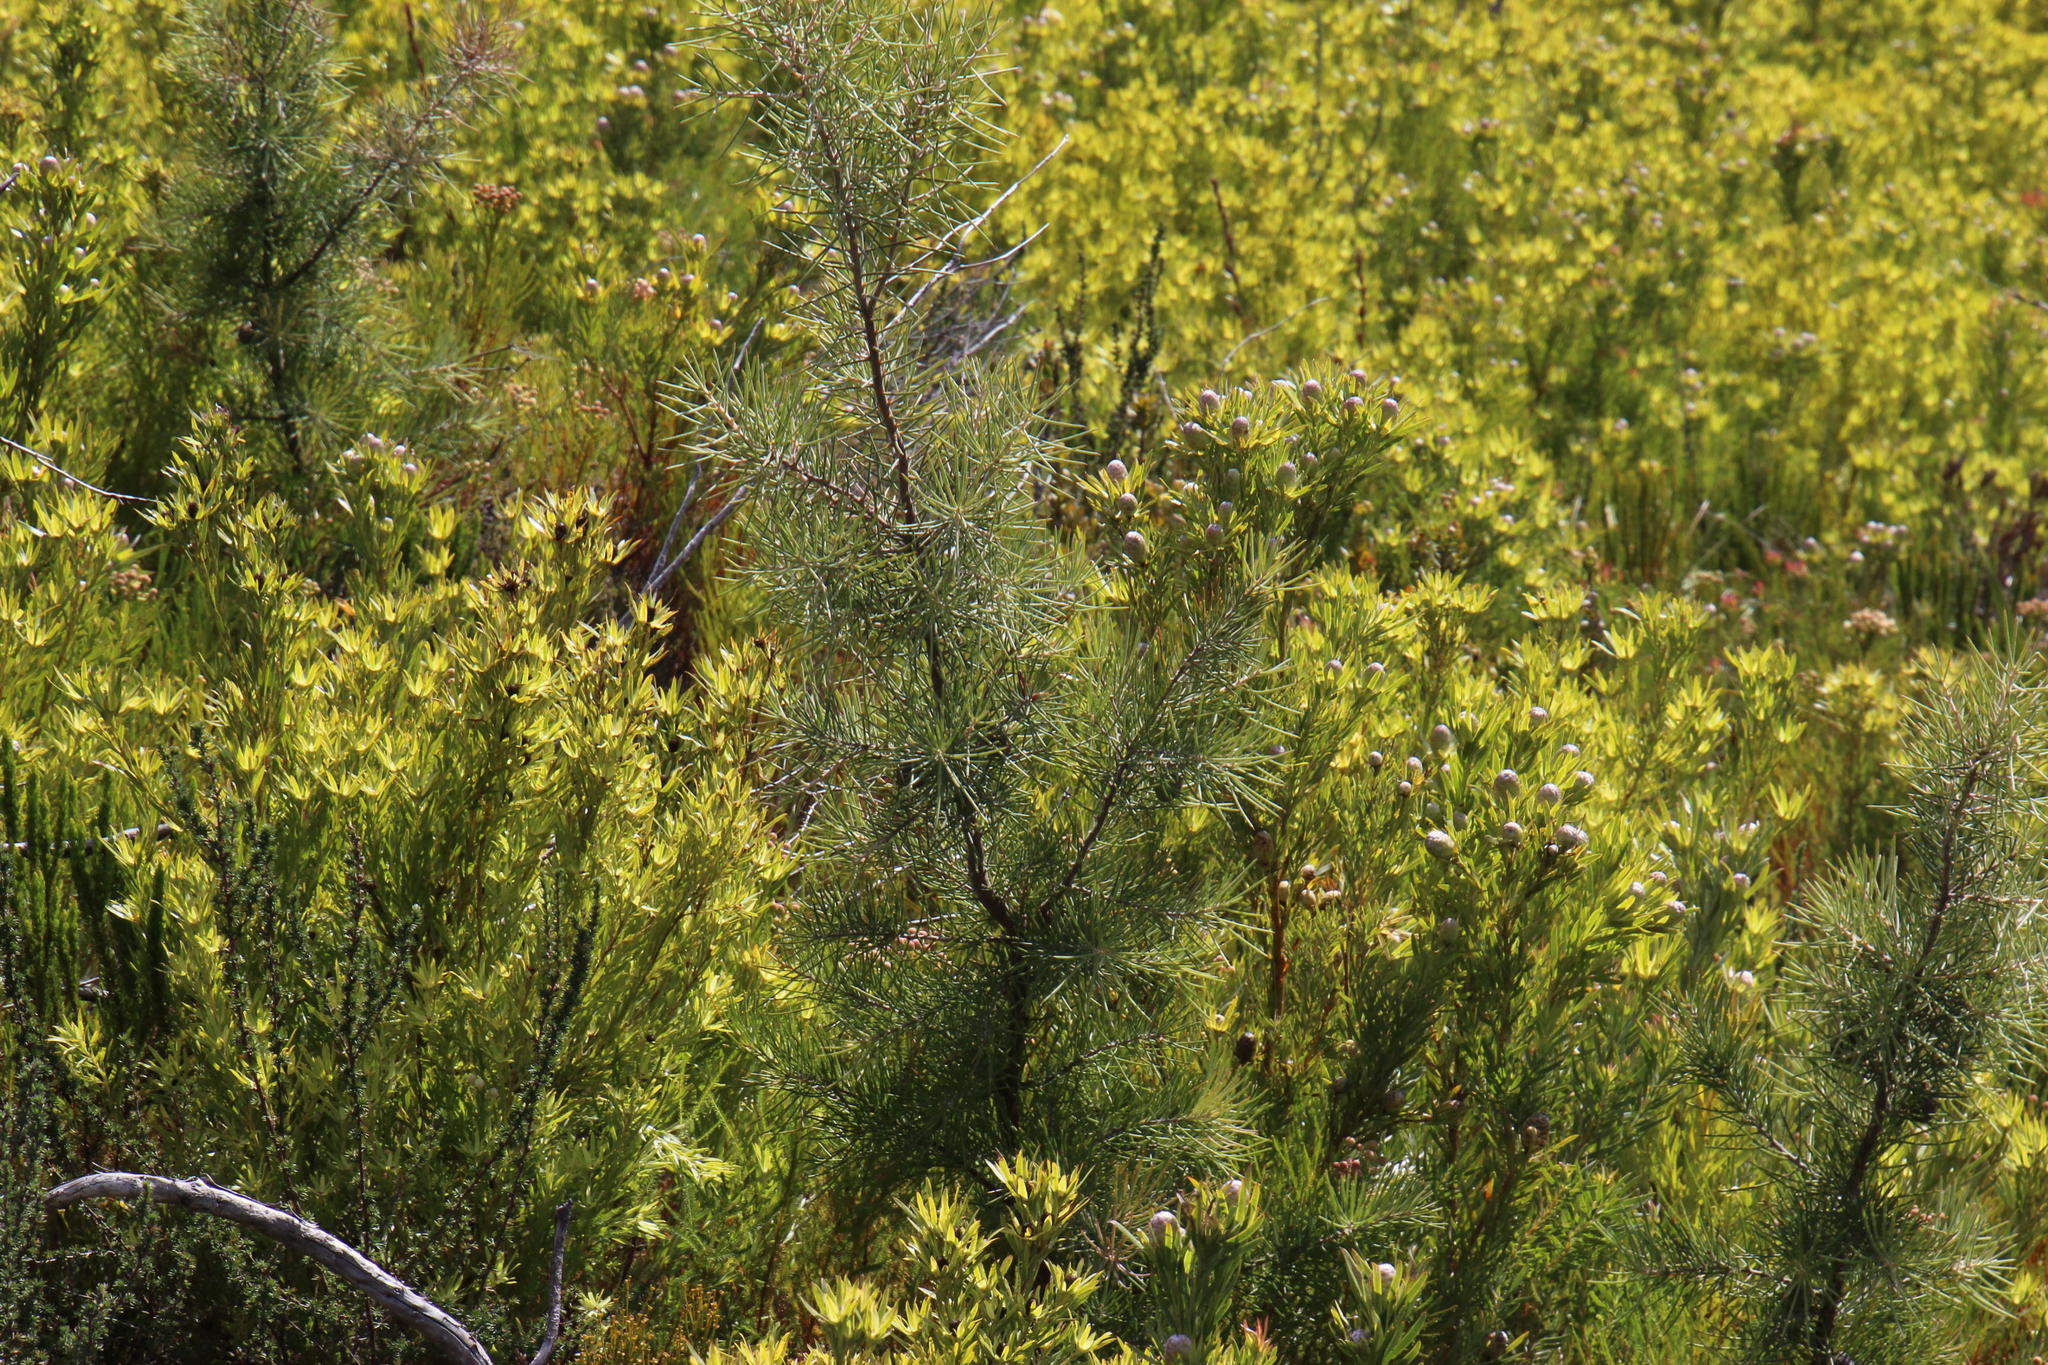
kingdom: Plantae
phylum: Tracheophyta
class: Magnoliopsida
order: Proteales
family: Proteaceae
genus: Hakea
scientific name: Hakea gibbosa
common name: Rock hakea
